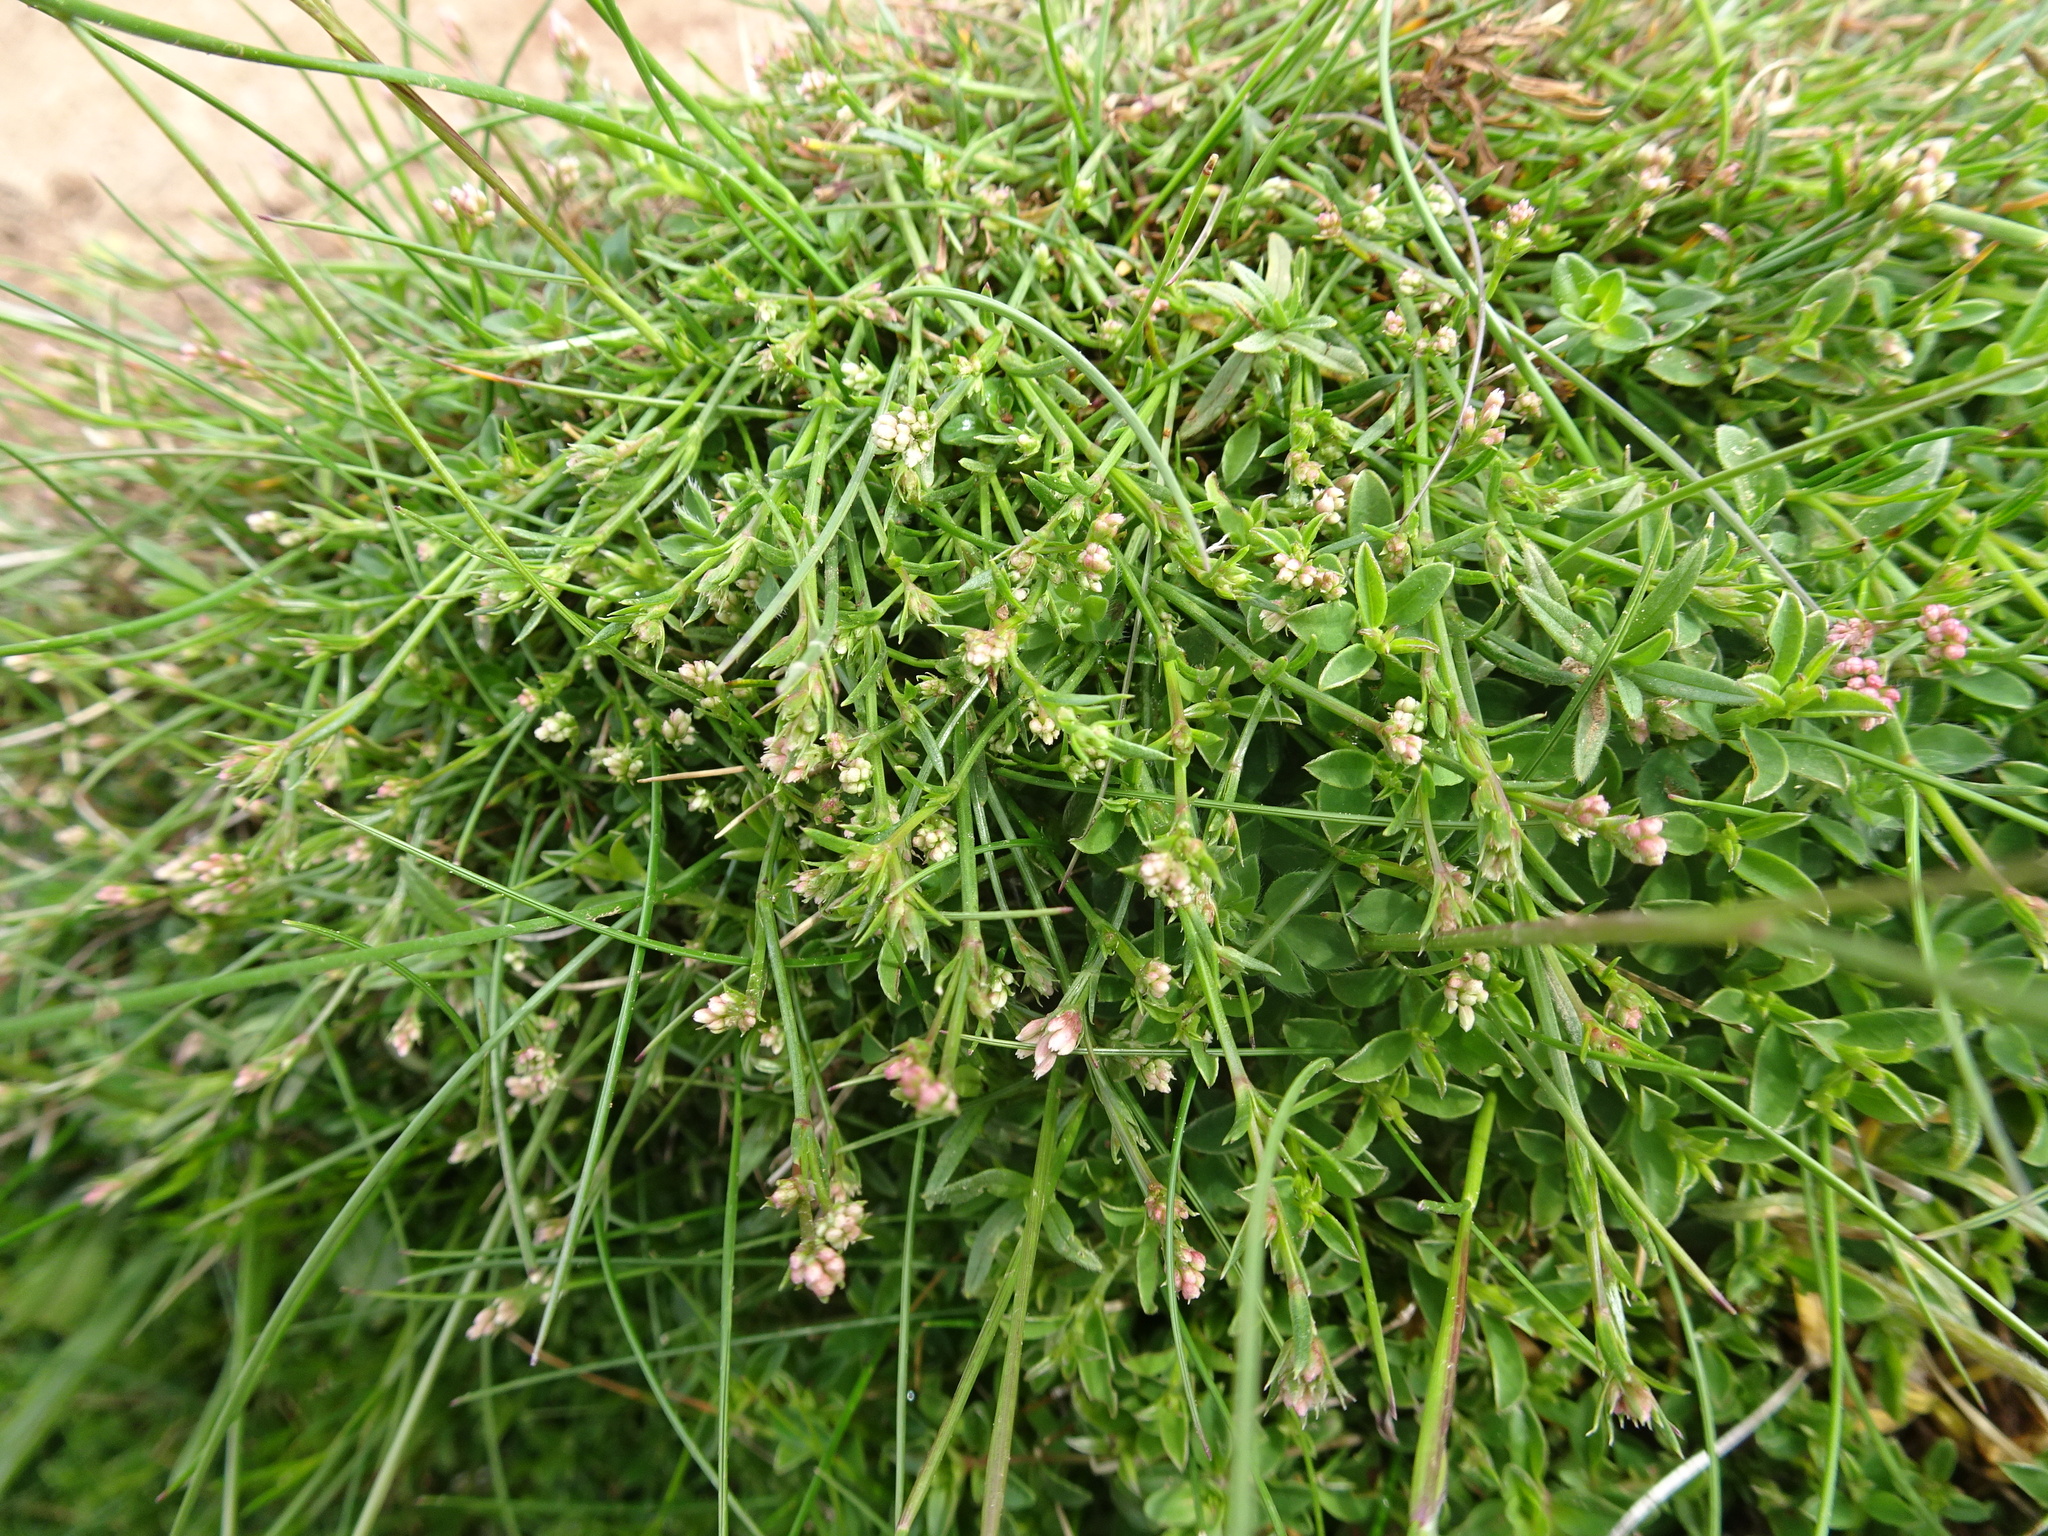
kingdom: Plantae
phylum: Tracheophyta
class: Magnoliopsida
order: Gentianales
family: Rubiaceae
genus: Cynanchica
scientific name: Cynanchica pyrenaica
